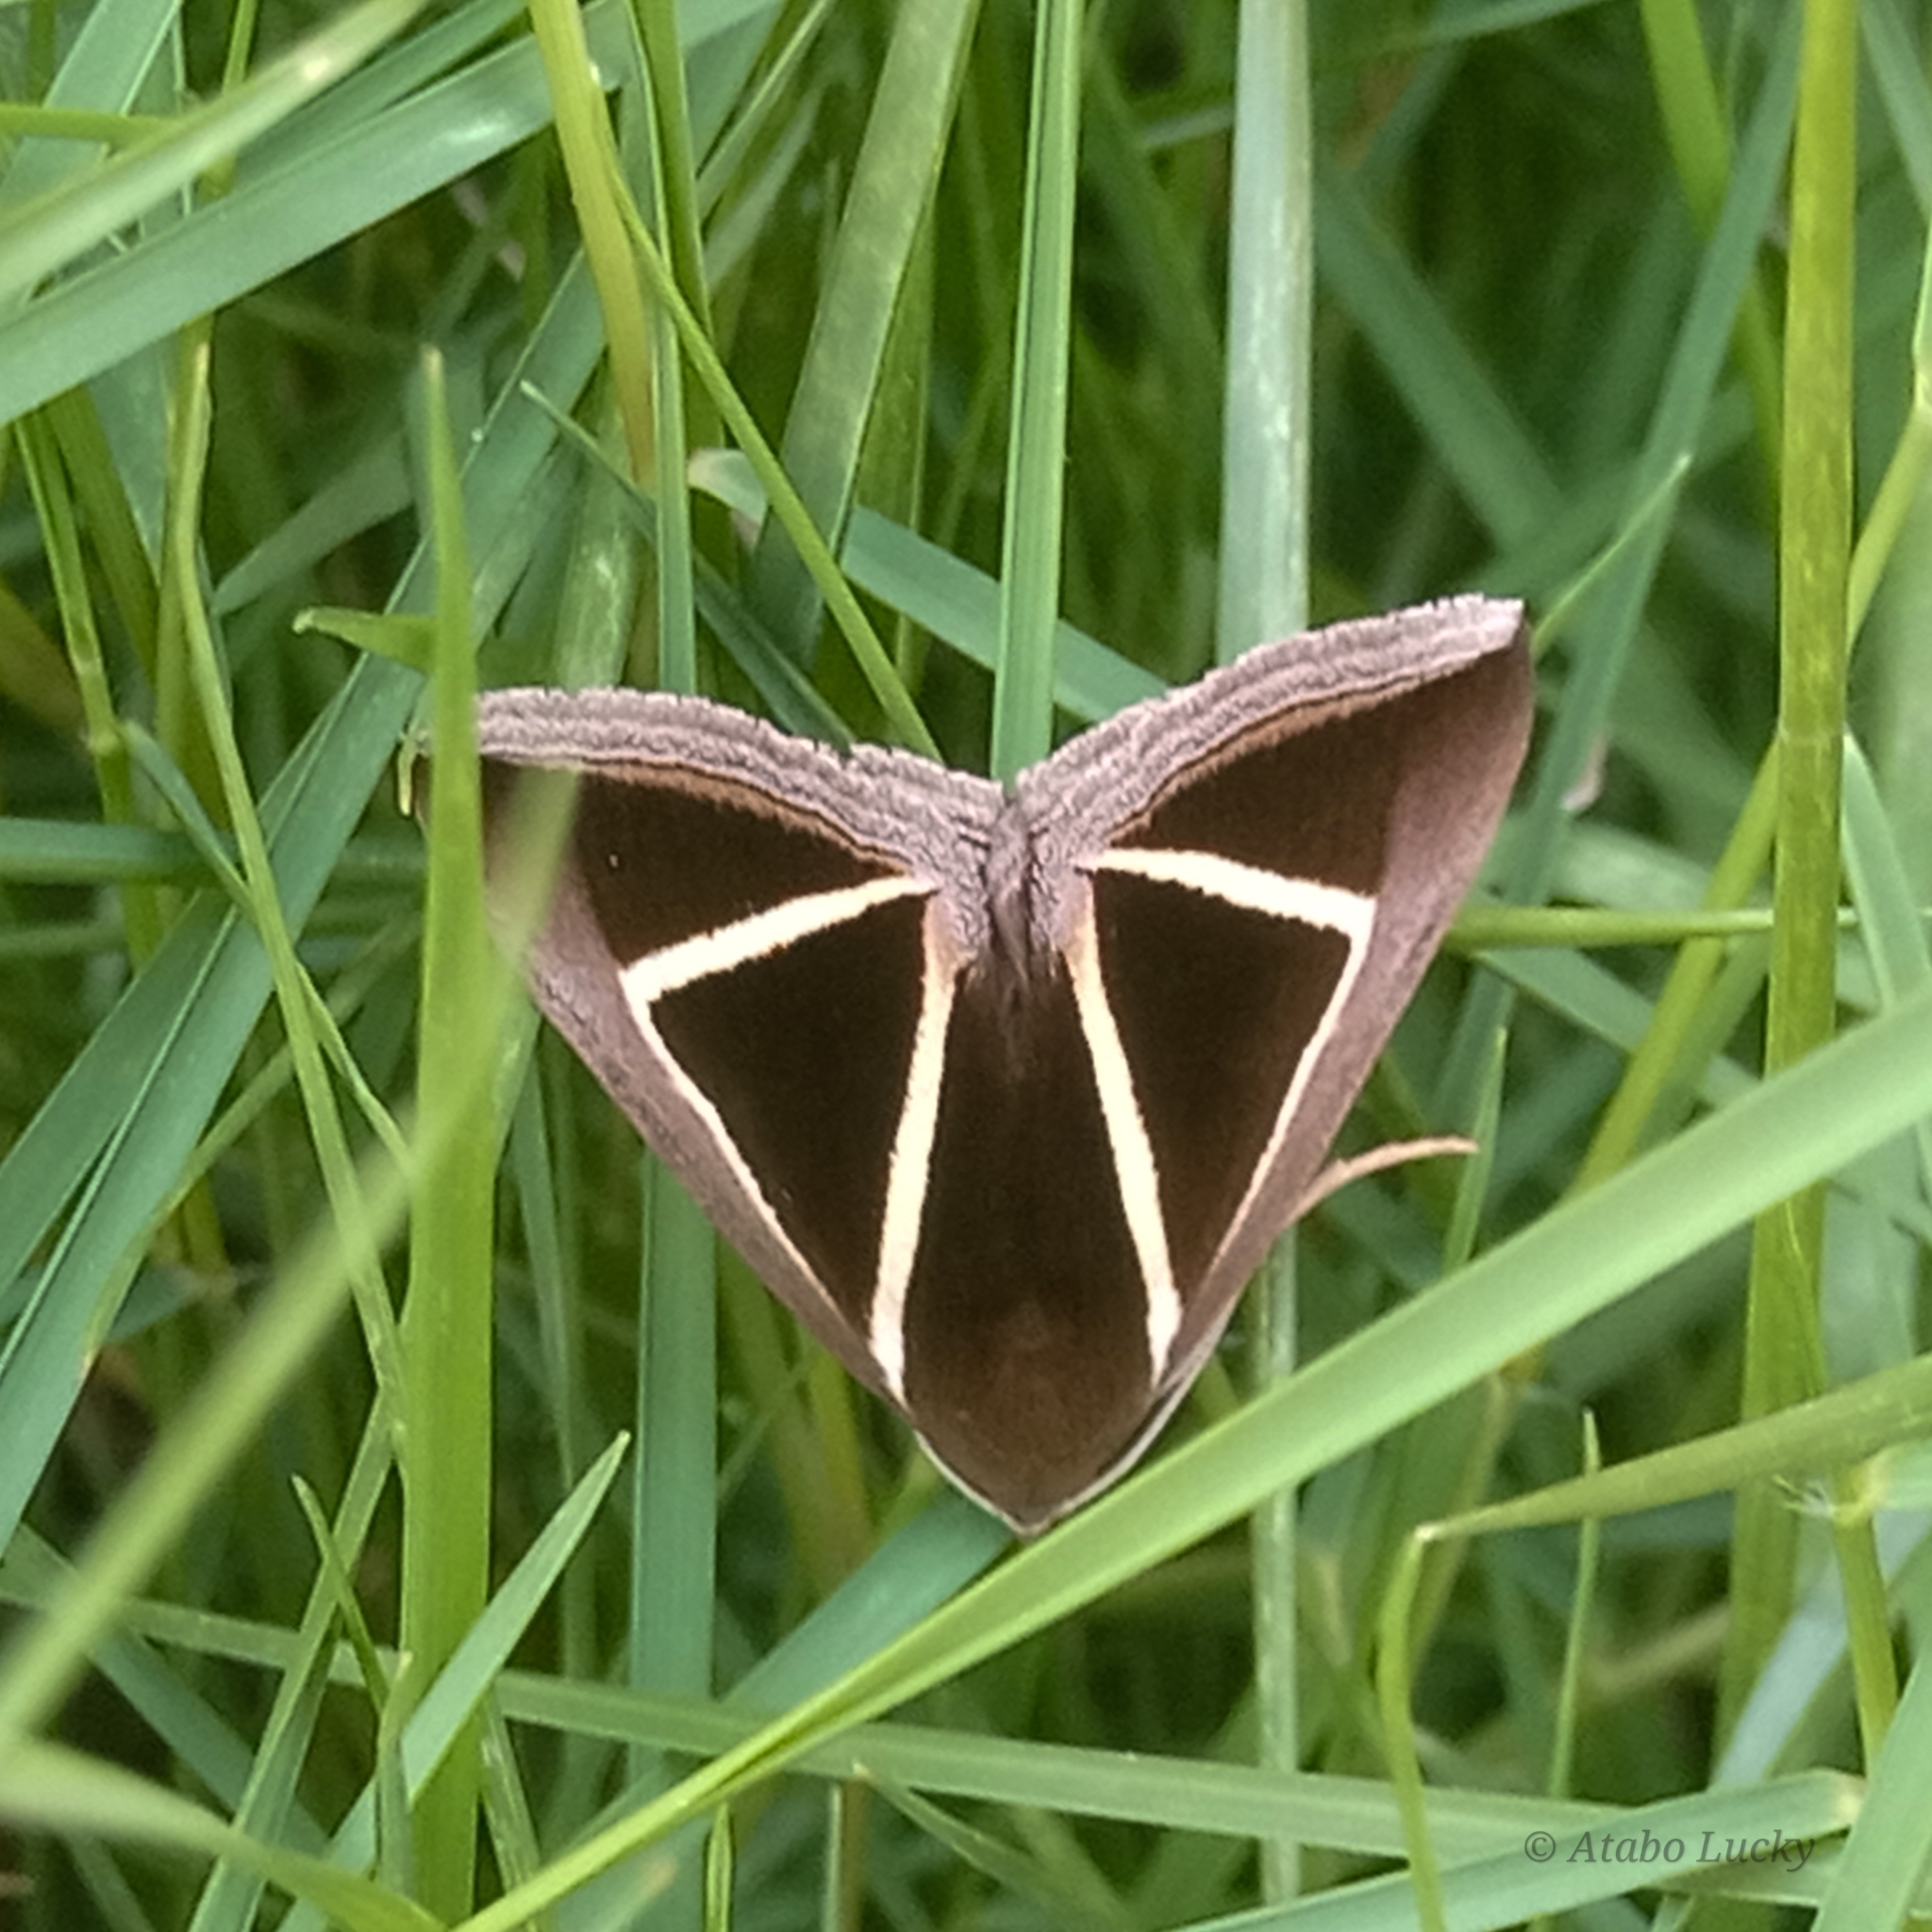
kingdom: Animalia
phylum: Arthropoda
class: Insecta
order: Lepidoptera
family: Erebidae
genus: Chalciope
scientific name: Chalciope delta
